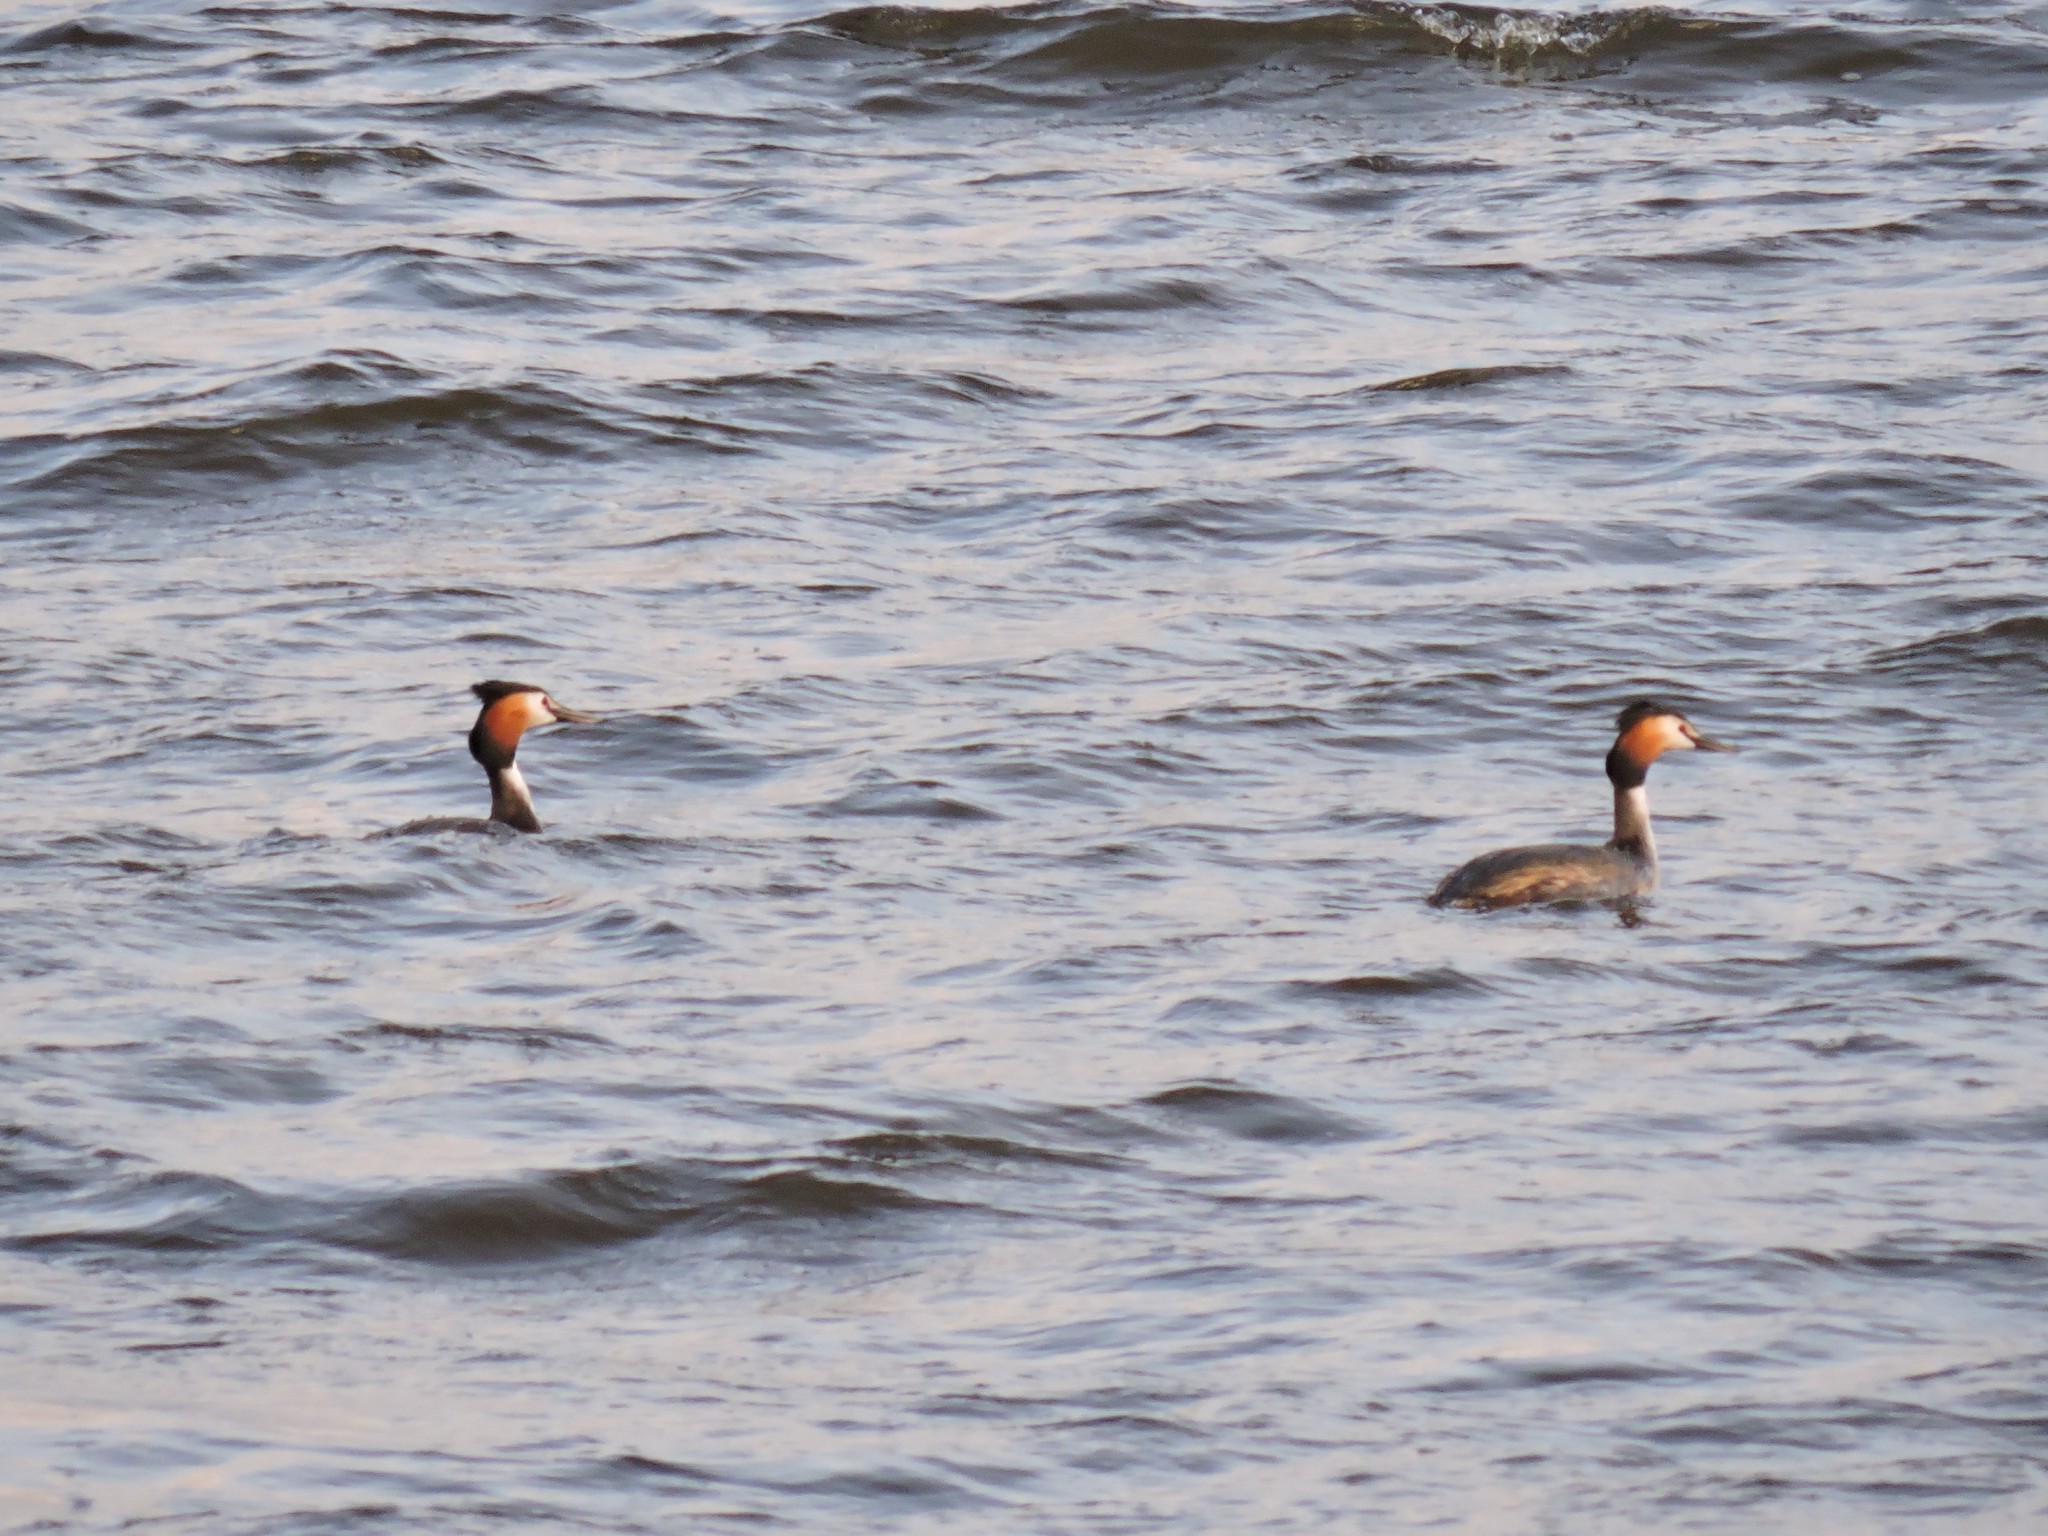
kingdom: Animalia
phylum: Chordata
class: Aves
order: Podicipediformes
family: Podicipedidae
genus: Podiceps
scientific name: Podiceps cristatus
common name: Great crested grebe
